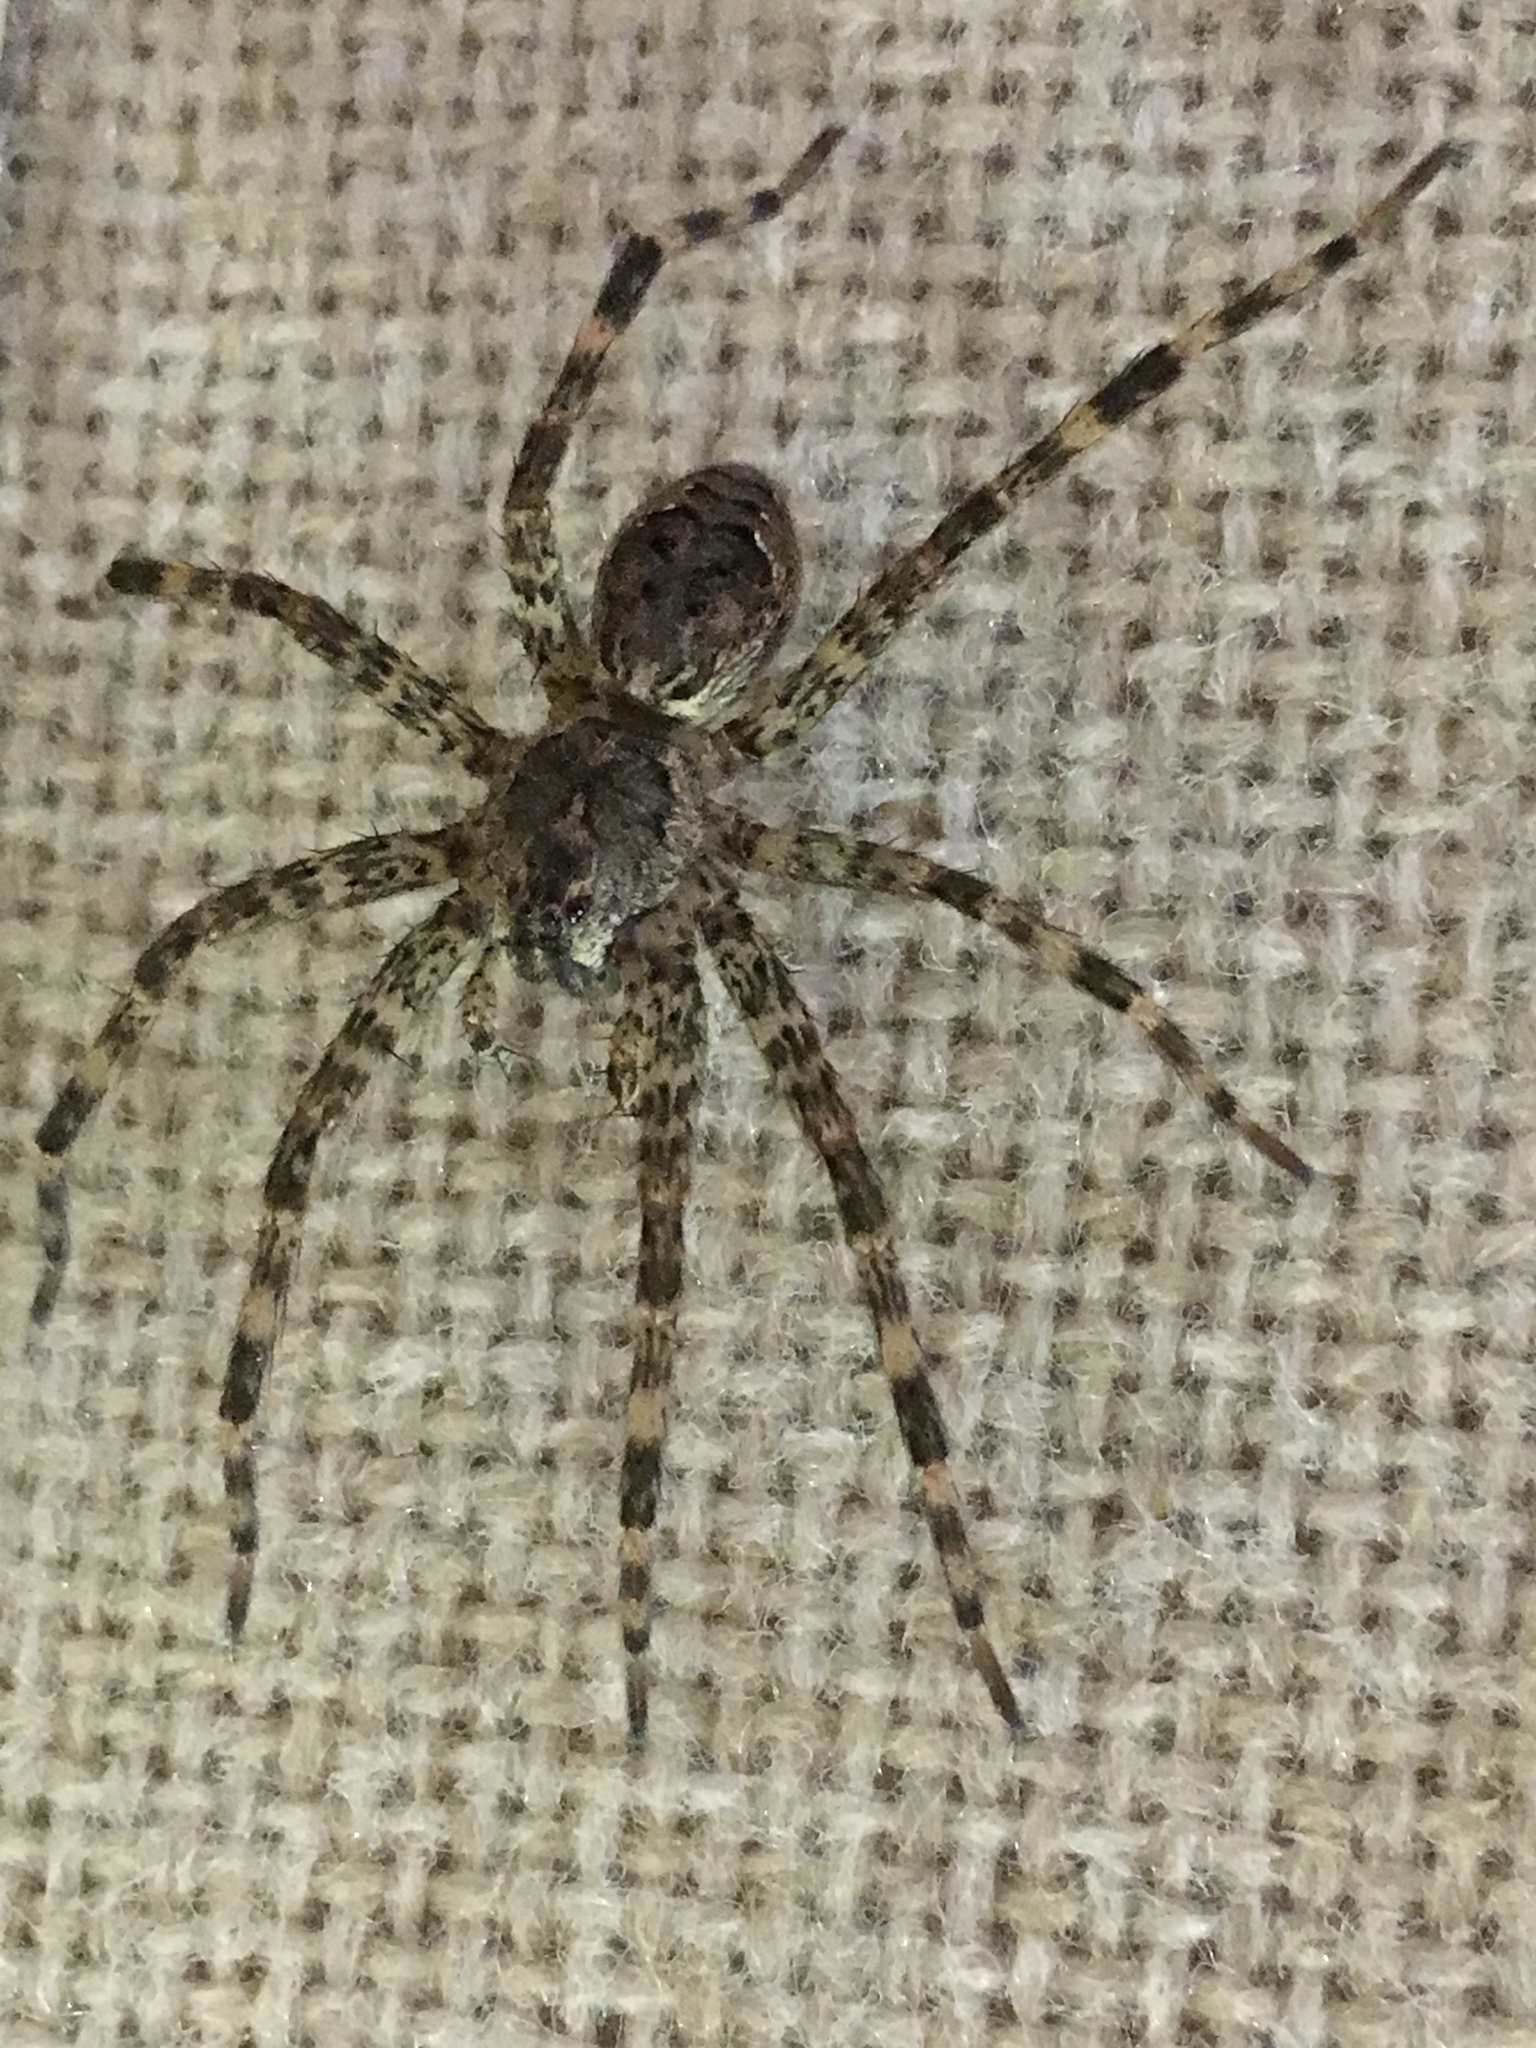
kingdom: Animalia
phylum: Arthropoda
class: Arachnida
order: Araneae
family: Pisauridae
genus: Dolomedes
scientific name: Dolomedes tenebrosus
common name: Dark fishing spider
